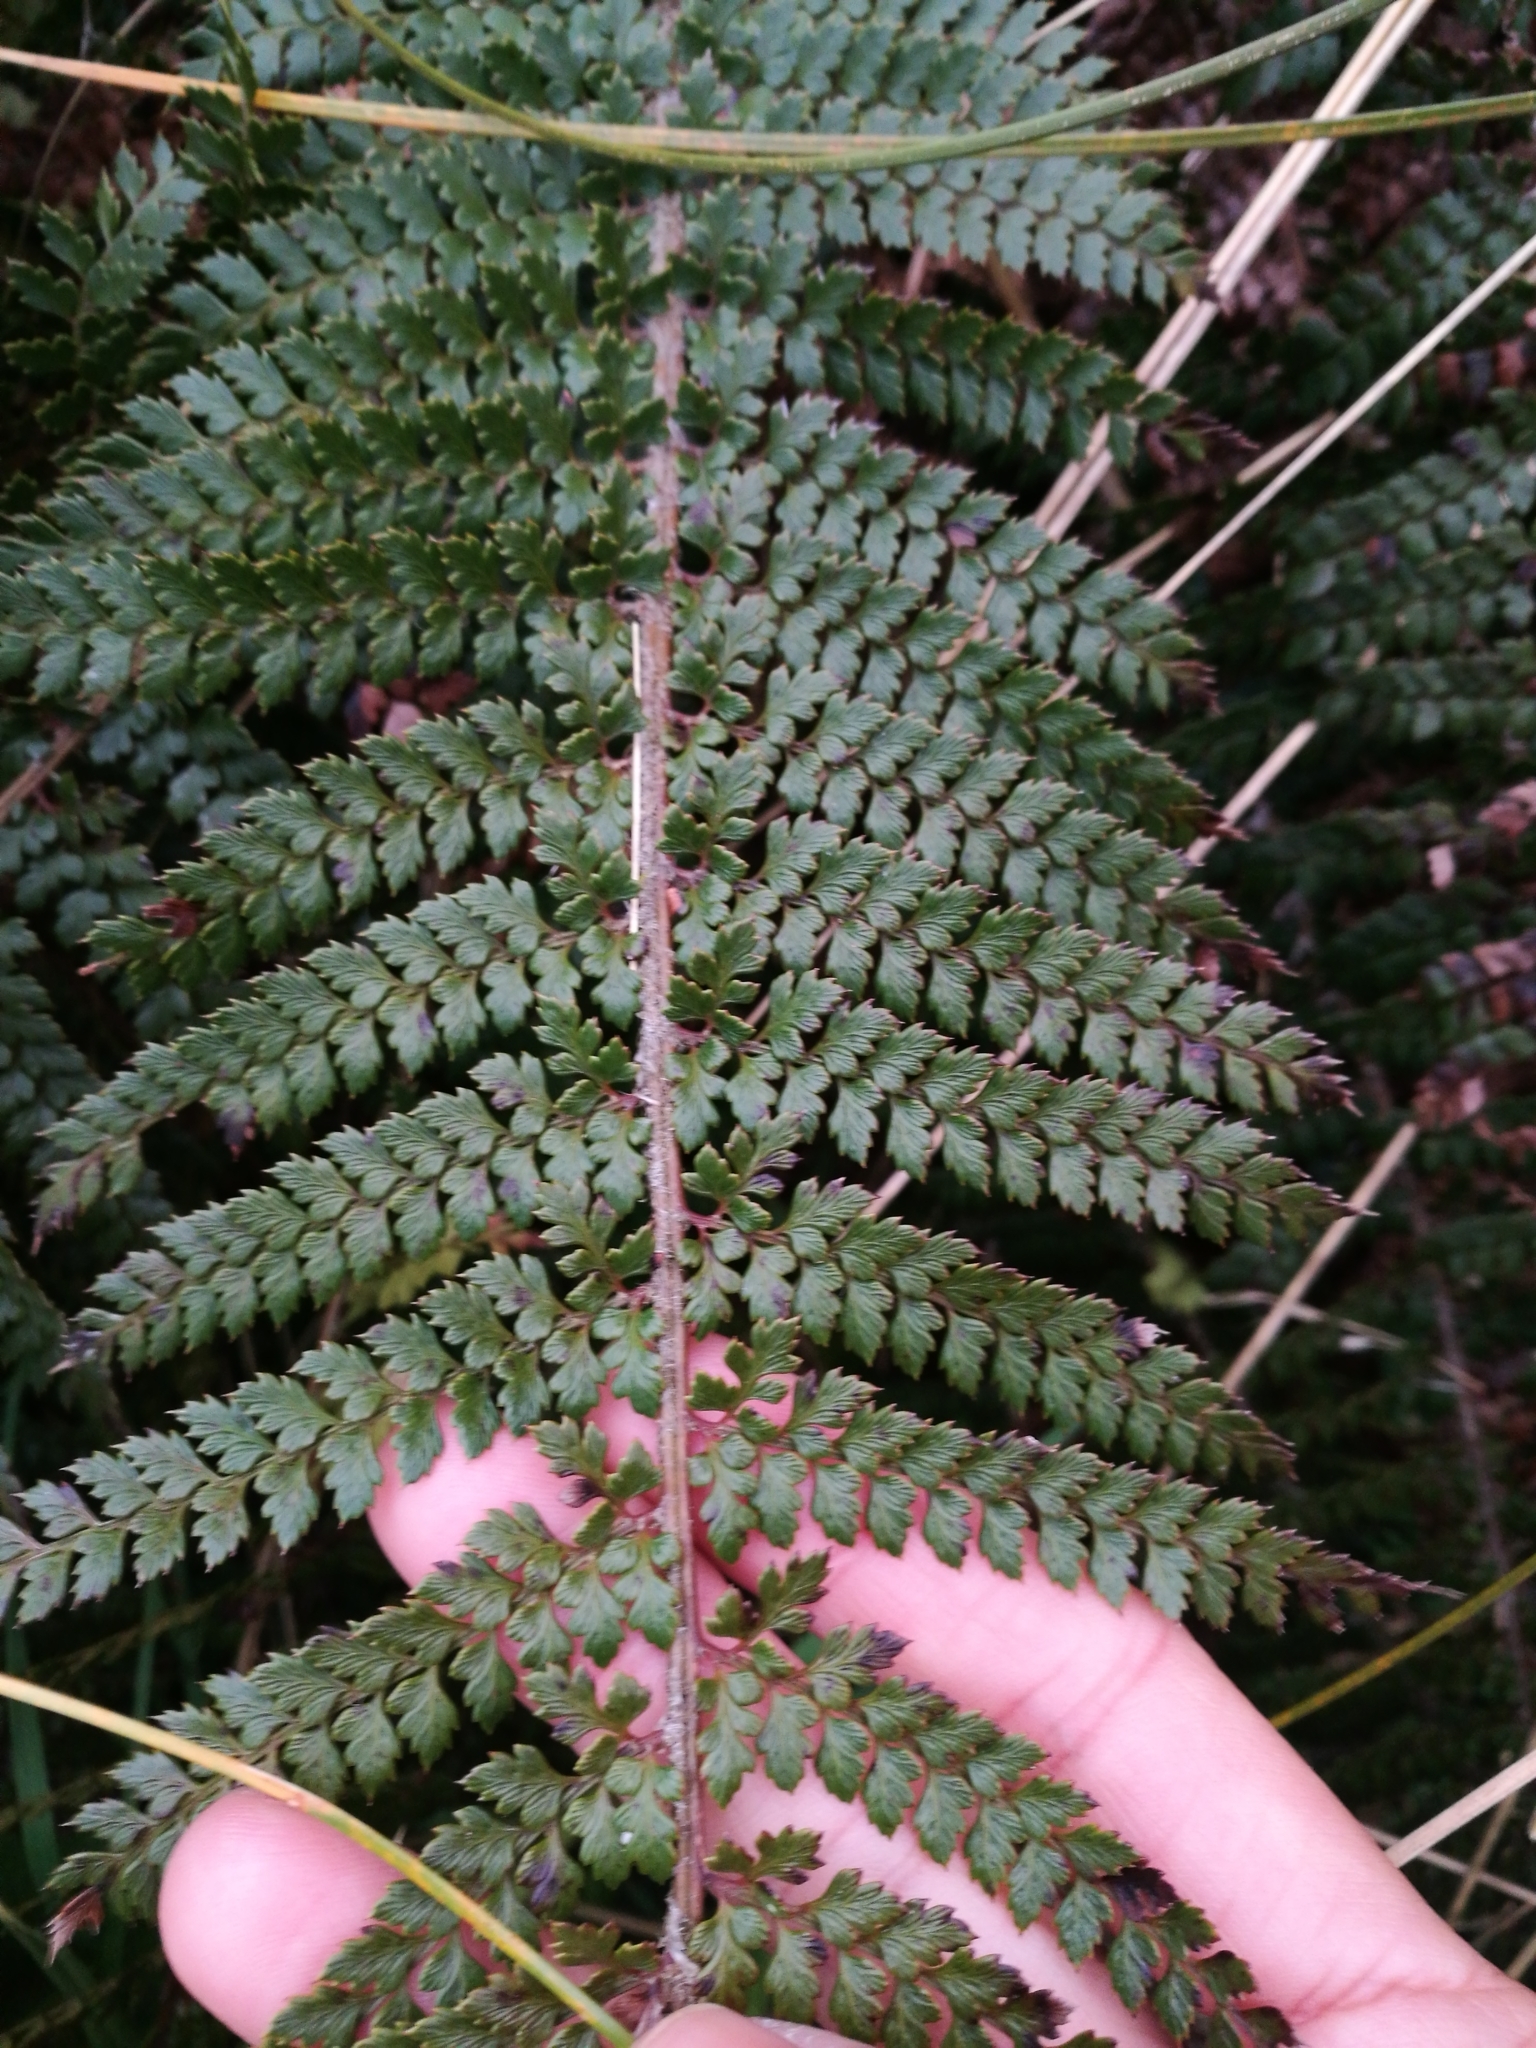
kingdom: Plantae
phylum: Tracheophyta
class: Polypodiopsida
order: Polypodiales
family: Dryopteridaceae
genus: Polystichum
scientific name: Polystichum vestitum
